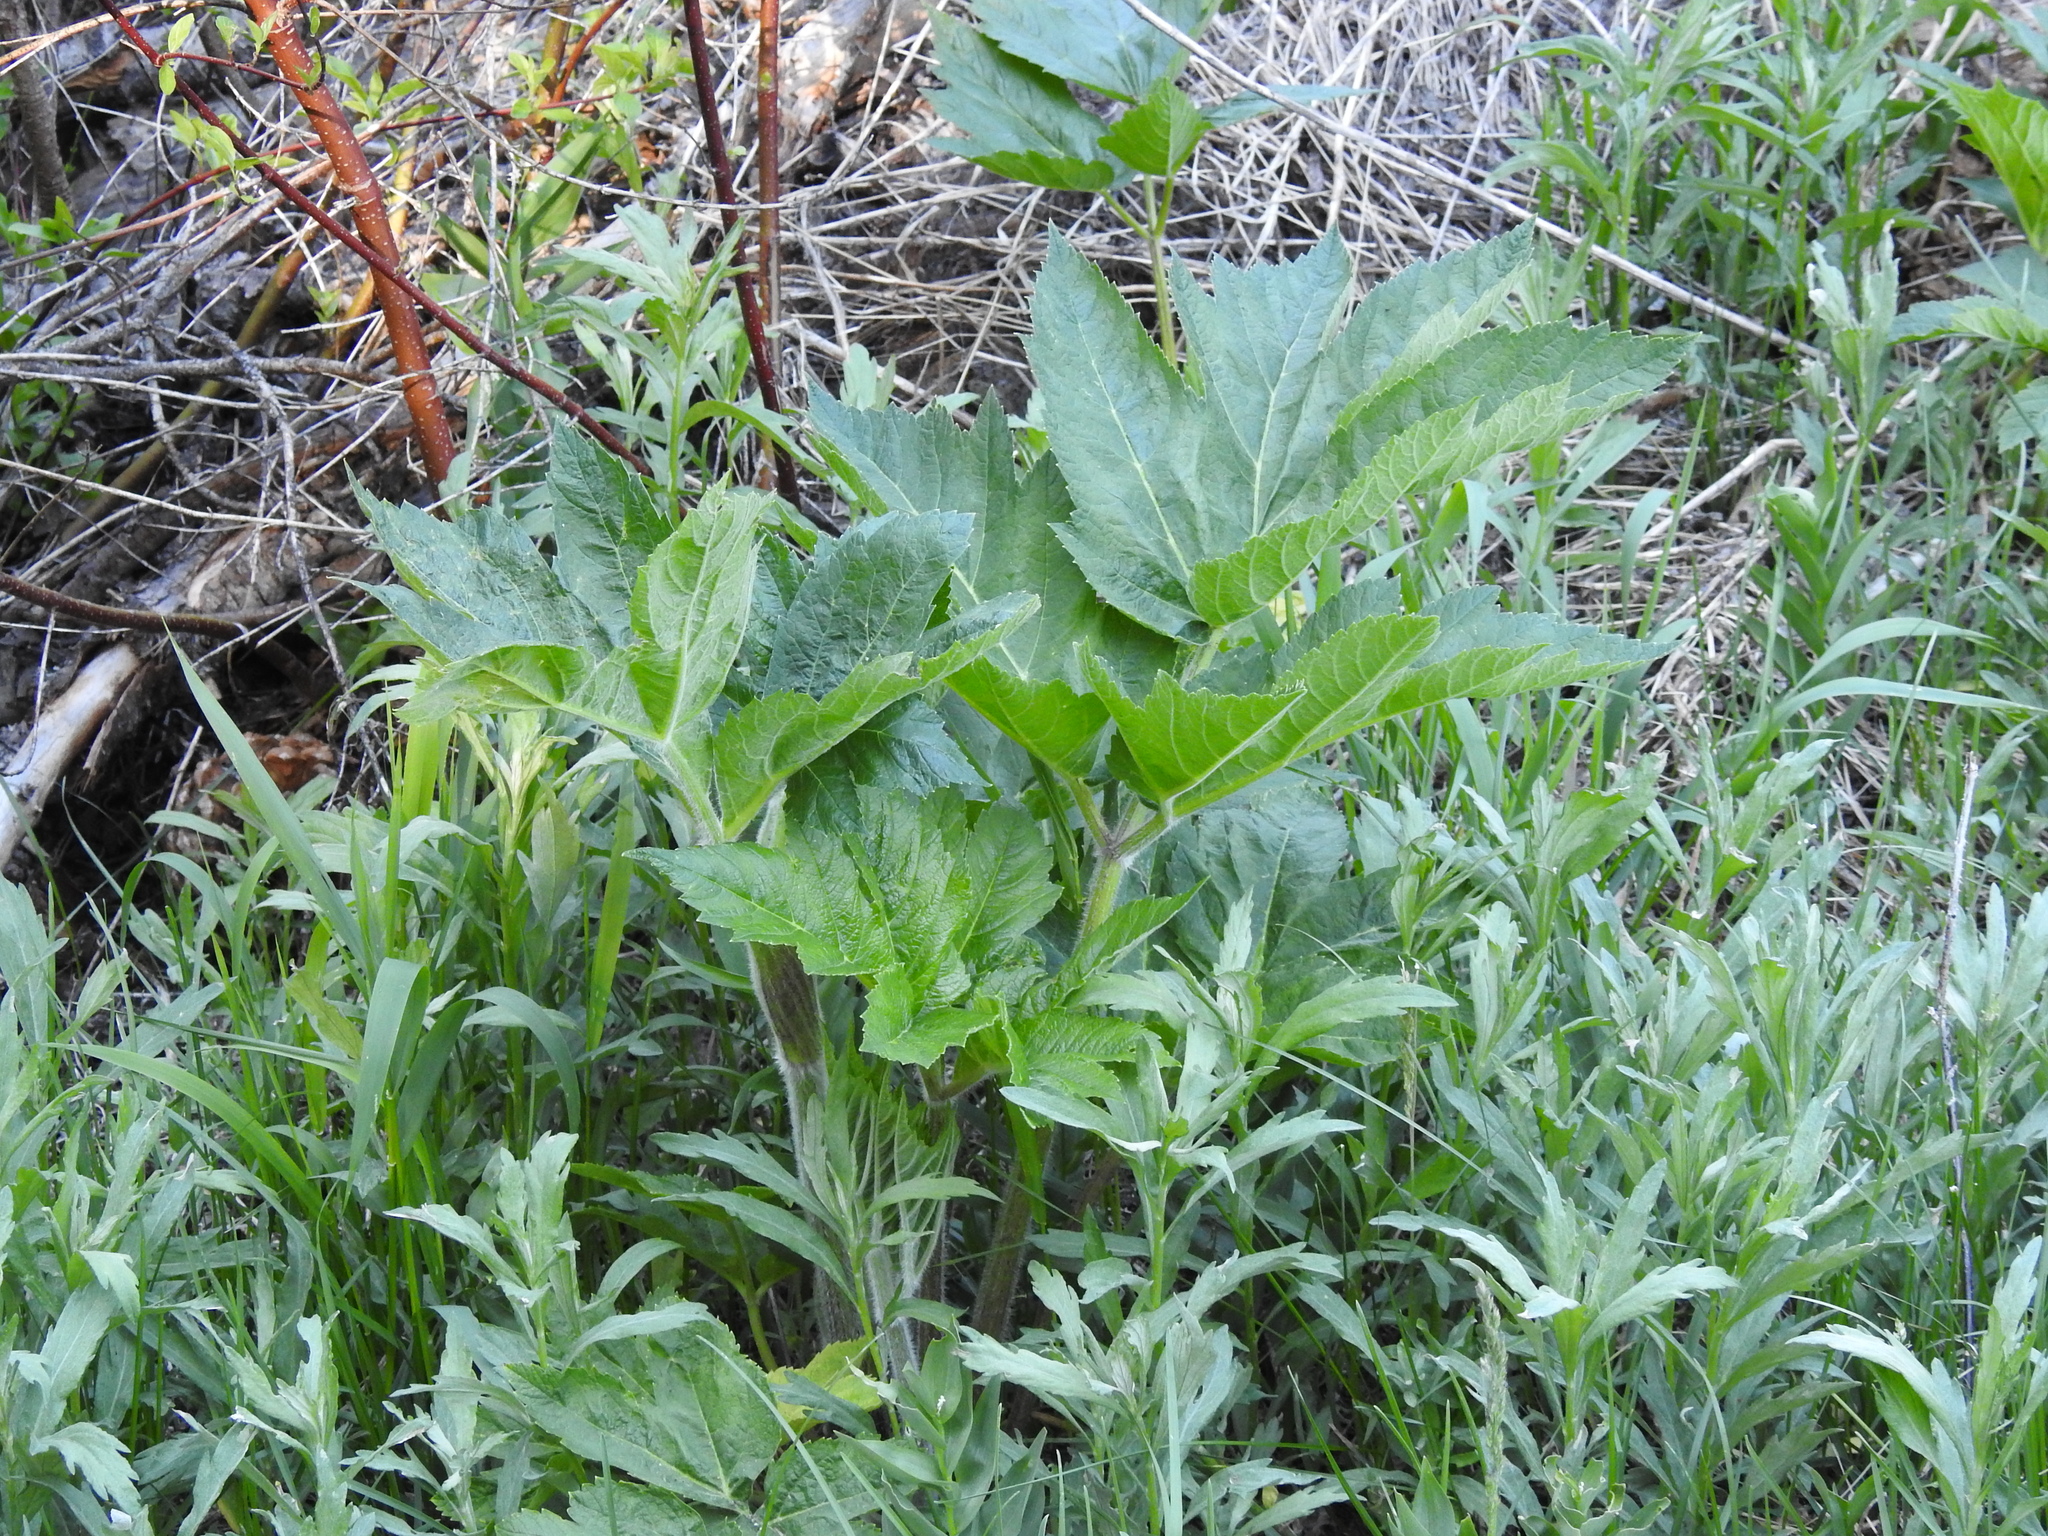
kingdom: Plantae
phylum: Tracheophyta
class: Magnoliopsida
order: Apiales
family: Apiaceae
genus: Heracleum
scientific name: Heracleum maximum
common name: American cow parsnip
